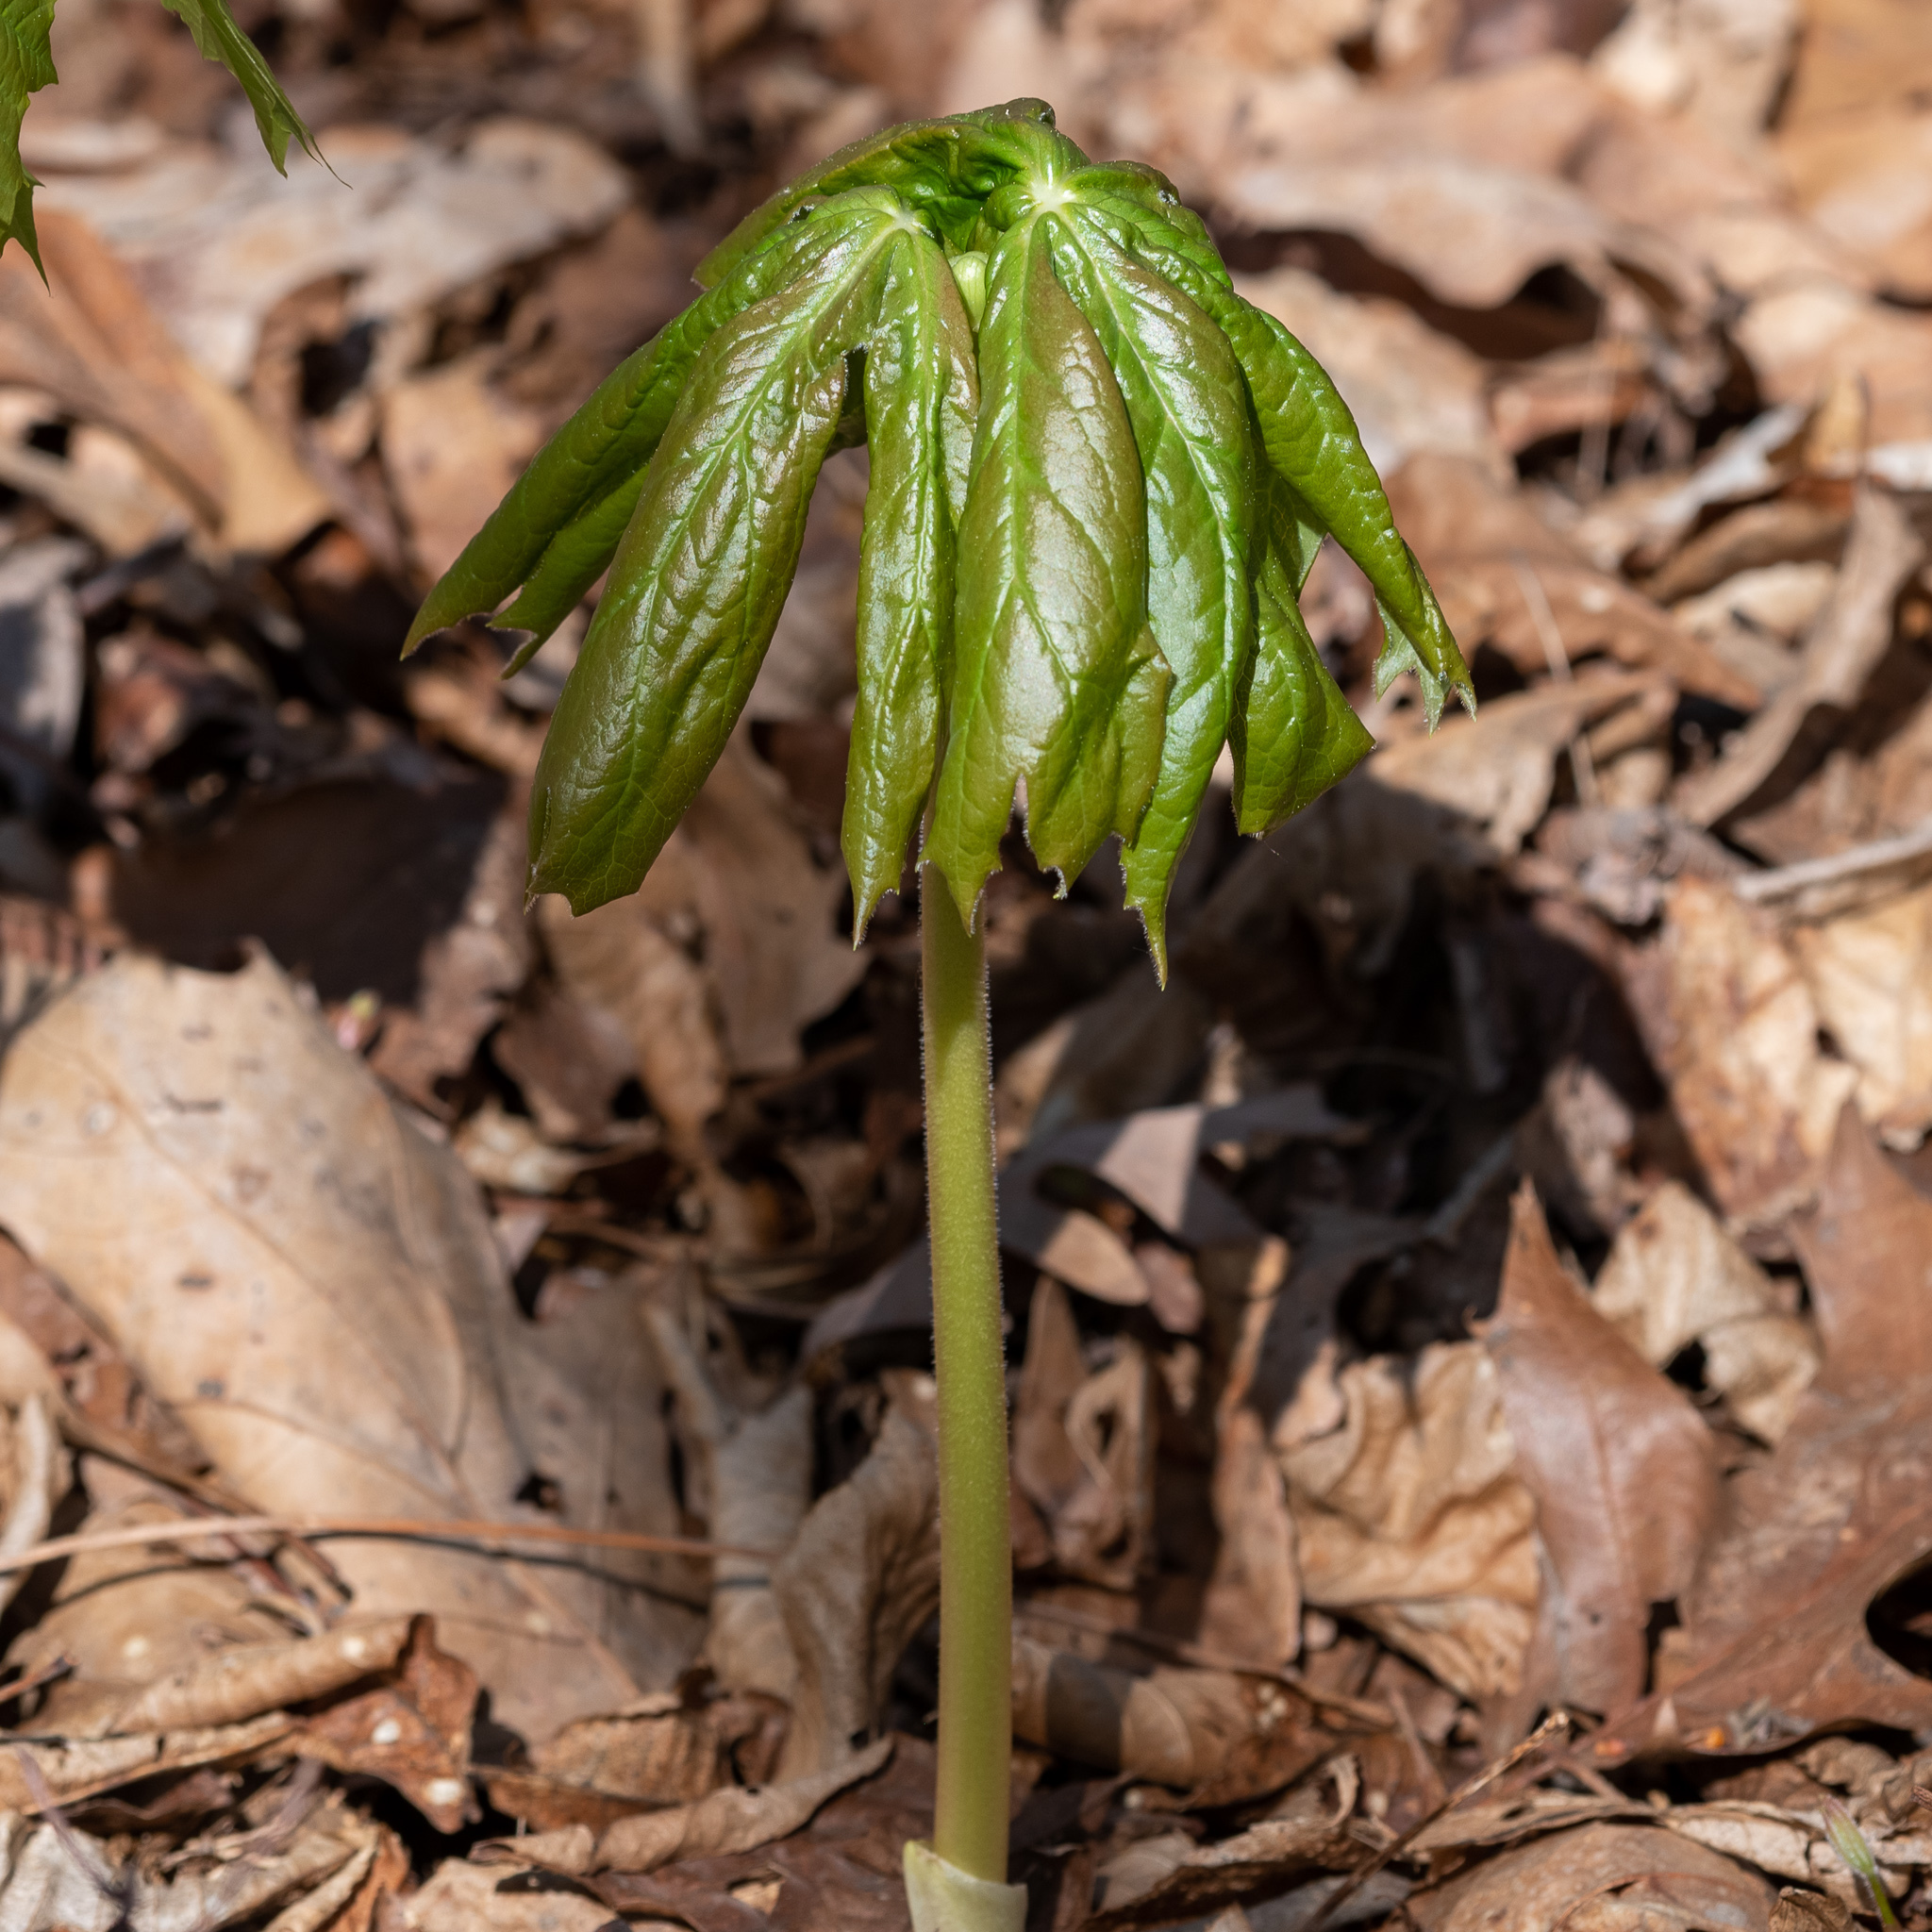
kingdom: Plantae
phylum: Tracheophyta
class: Magnoliopsida
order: Ranunculales
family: Berberidaceae
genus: Podophyllum
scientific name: Podophyllum peltatum
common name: Wild mandrake
